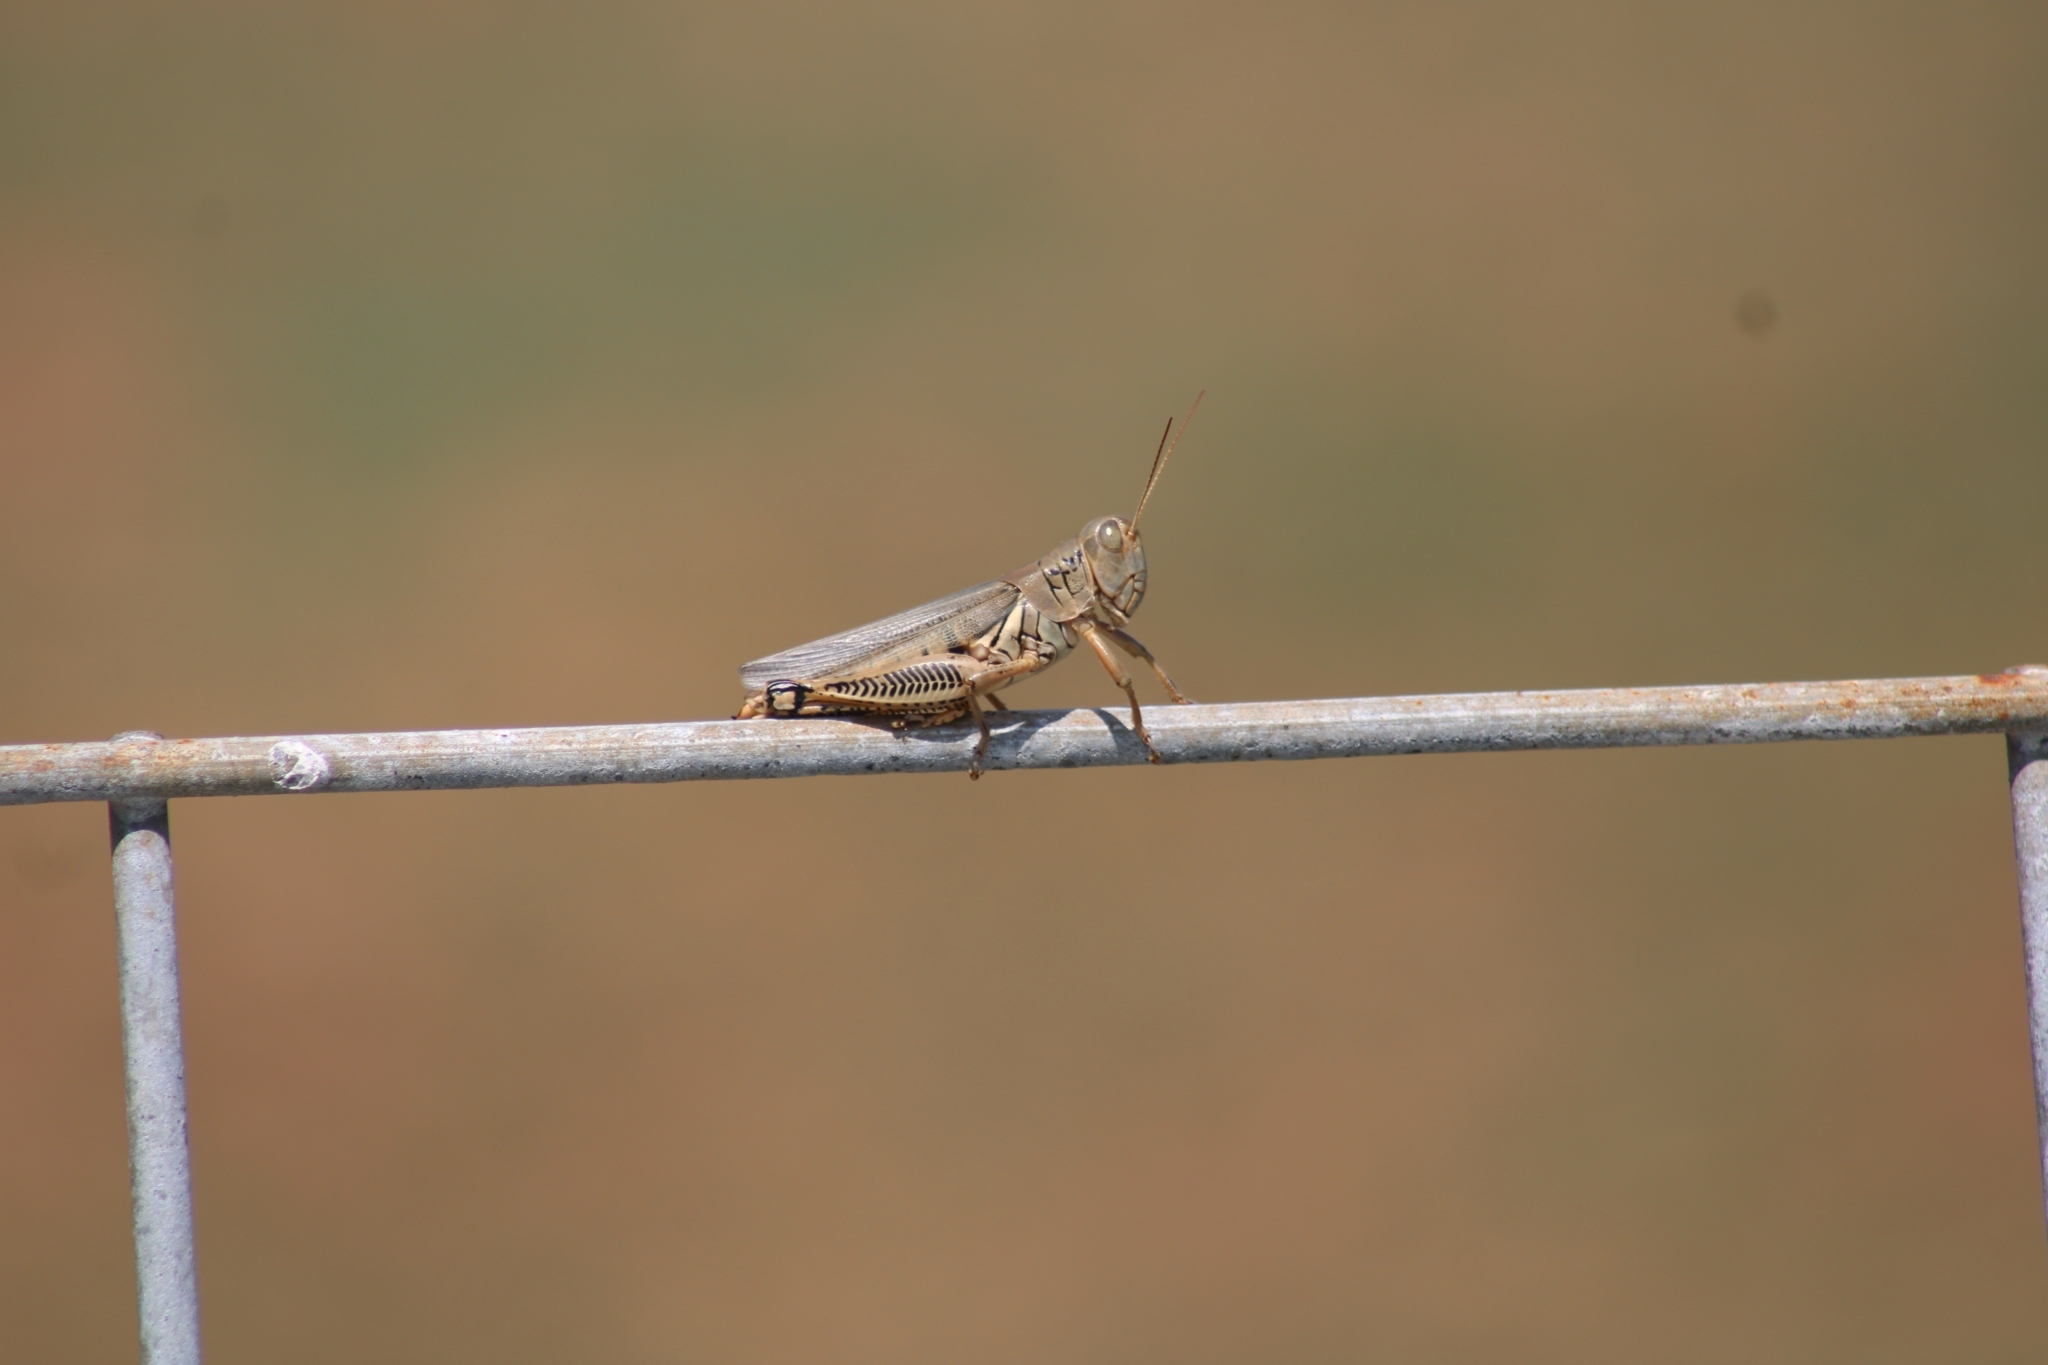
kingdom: Animalia
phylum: Arthropoda
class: Insecta
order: Orthoptera
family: Acrididae
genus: Melanoplus
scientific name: Melanoplus differentialis
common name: Differential grasshopper
